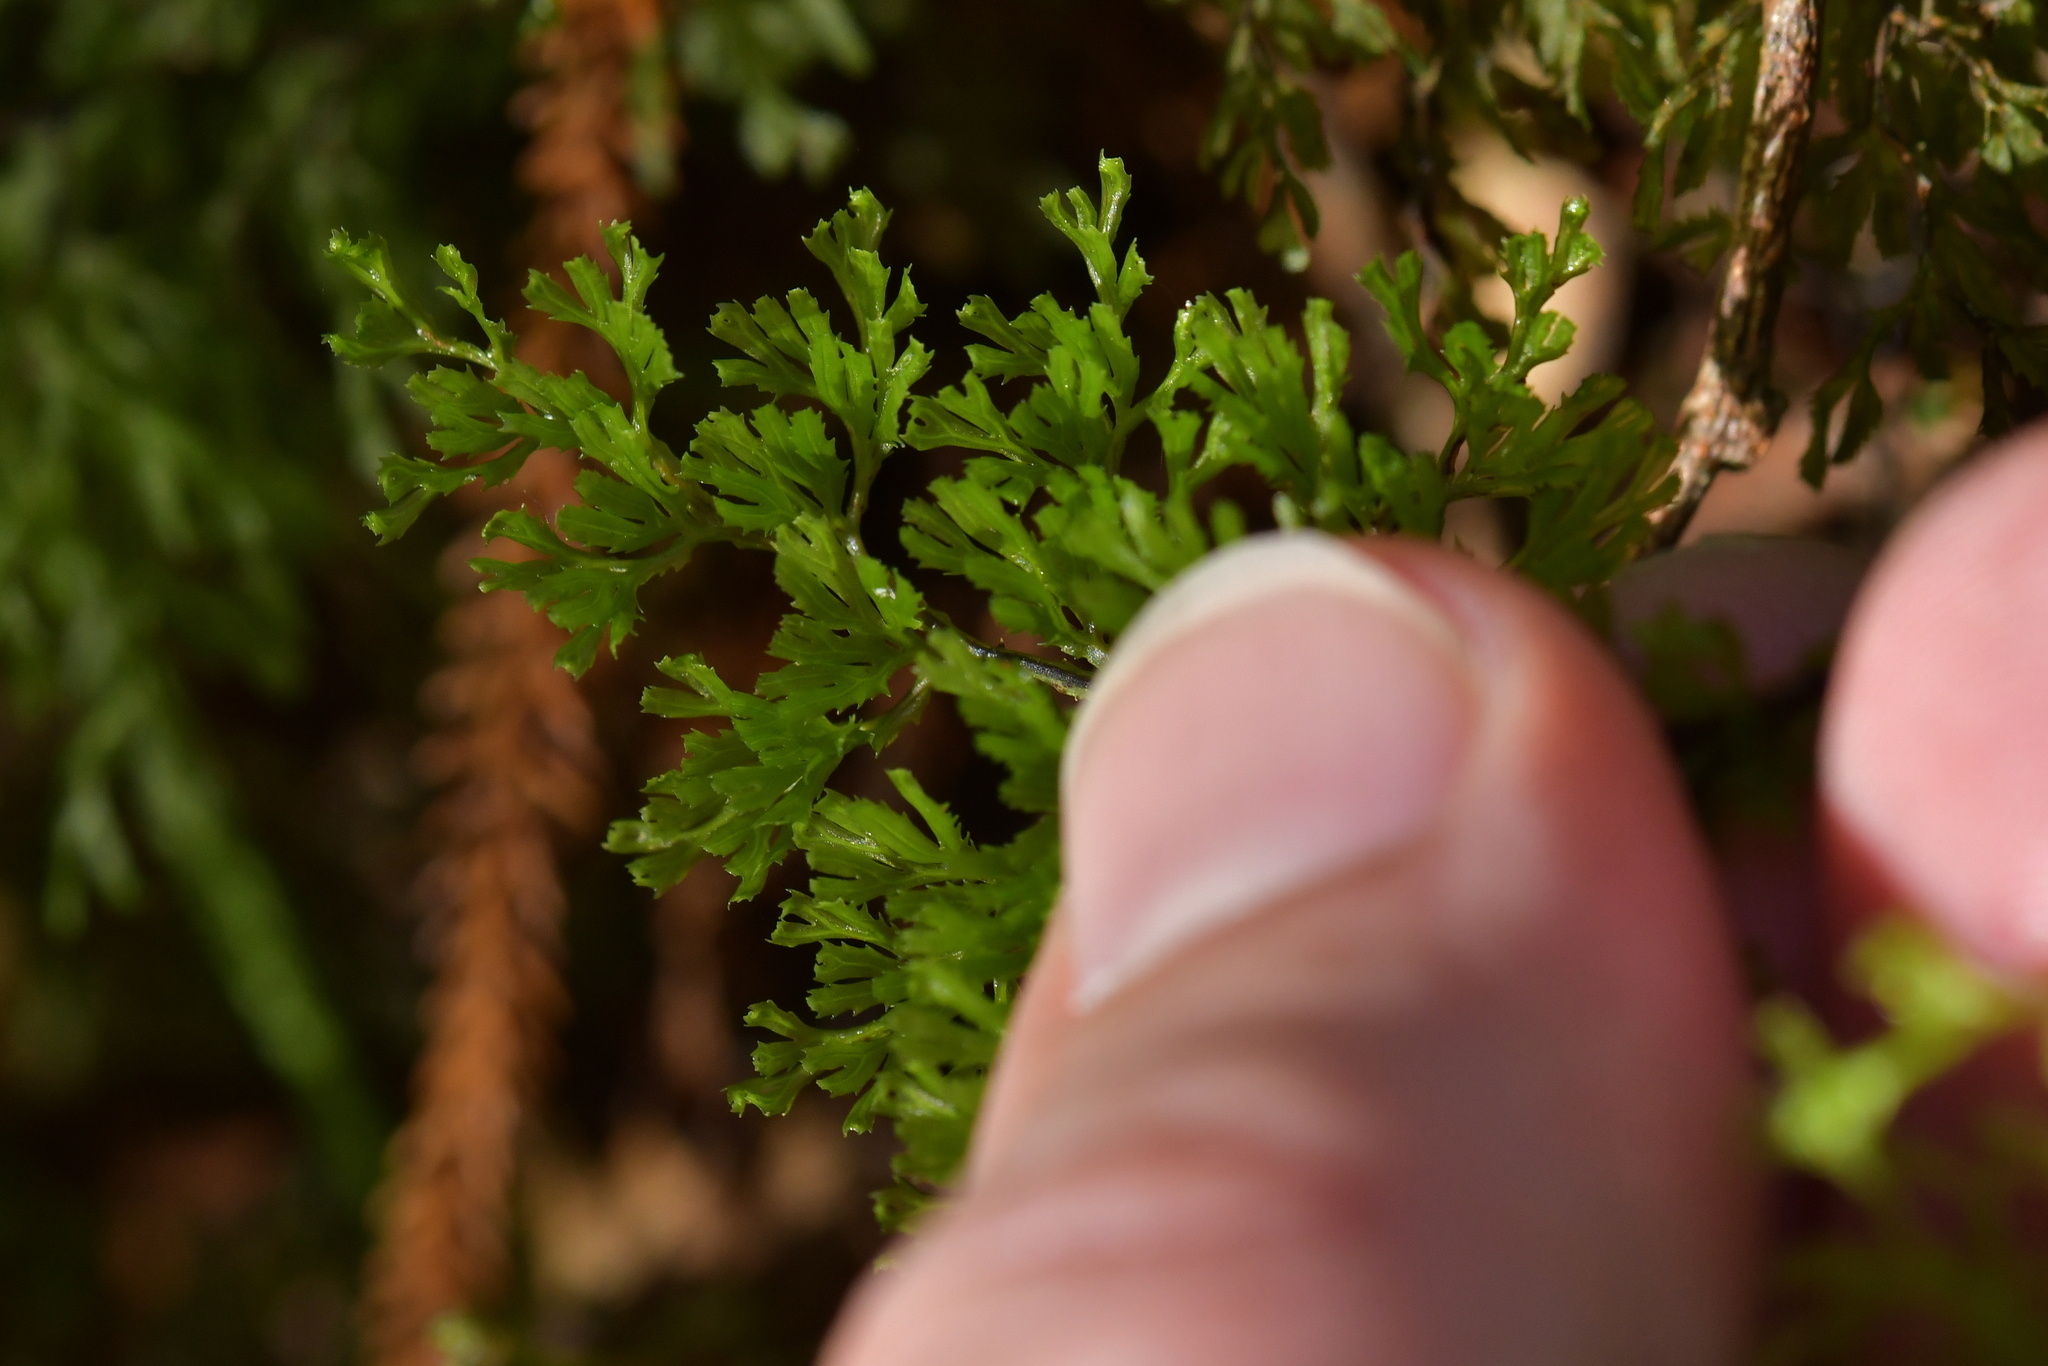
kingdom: Plantae
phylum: Tracheophyta
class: Polypodiopsida
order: Hymenophyllales
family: Hymenophyllaceae
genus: Hymenophyllum
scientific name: Hymenophyllum multifidum
